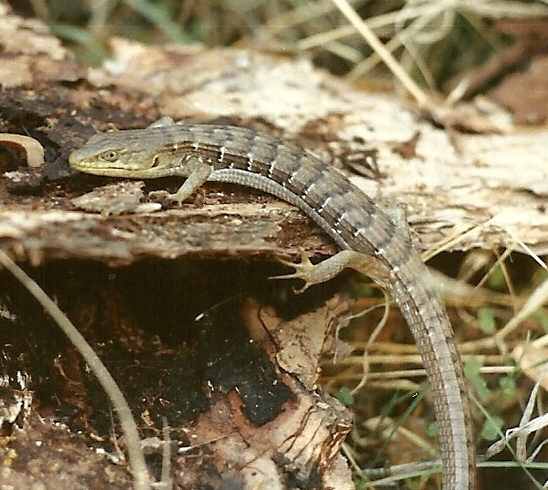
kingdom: Animalia
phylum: Chordata
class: Squamata
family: Anguidae
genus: Elgaria
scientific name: Elgaria multicarinata
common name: Southern alligator lizard
